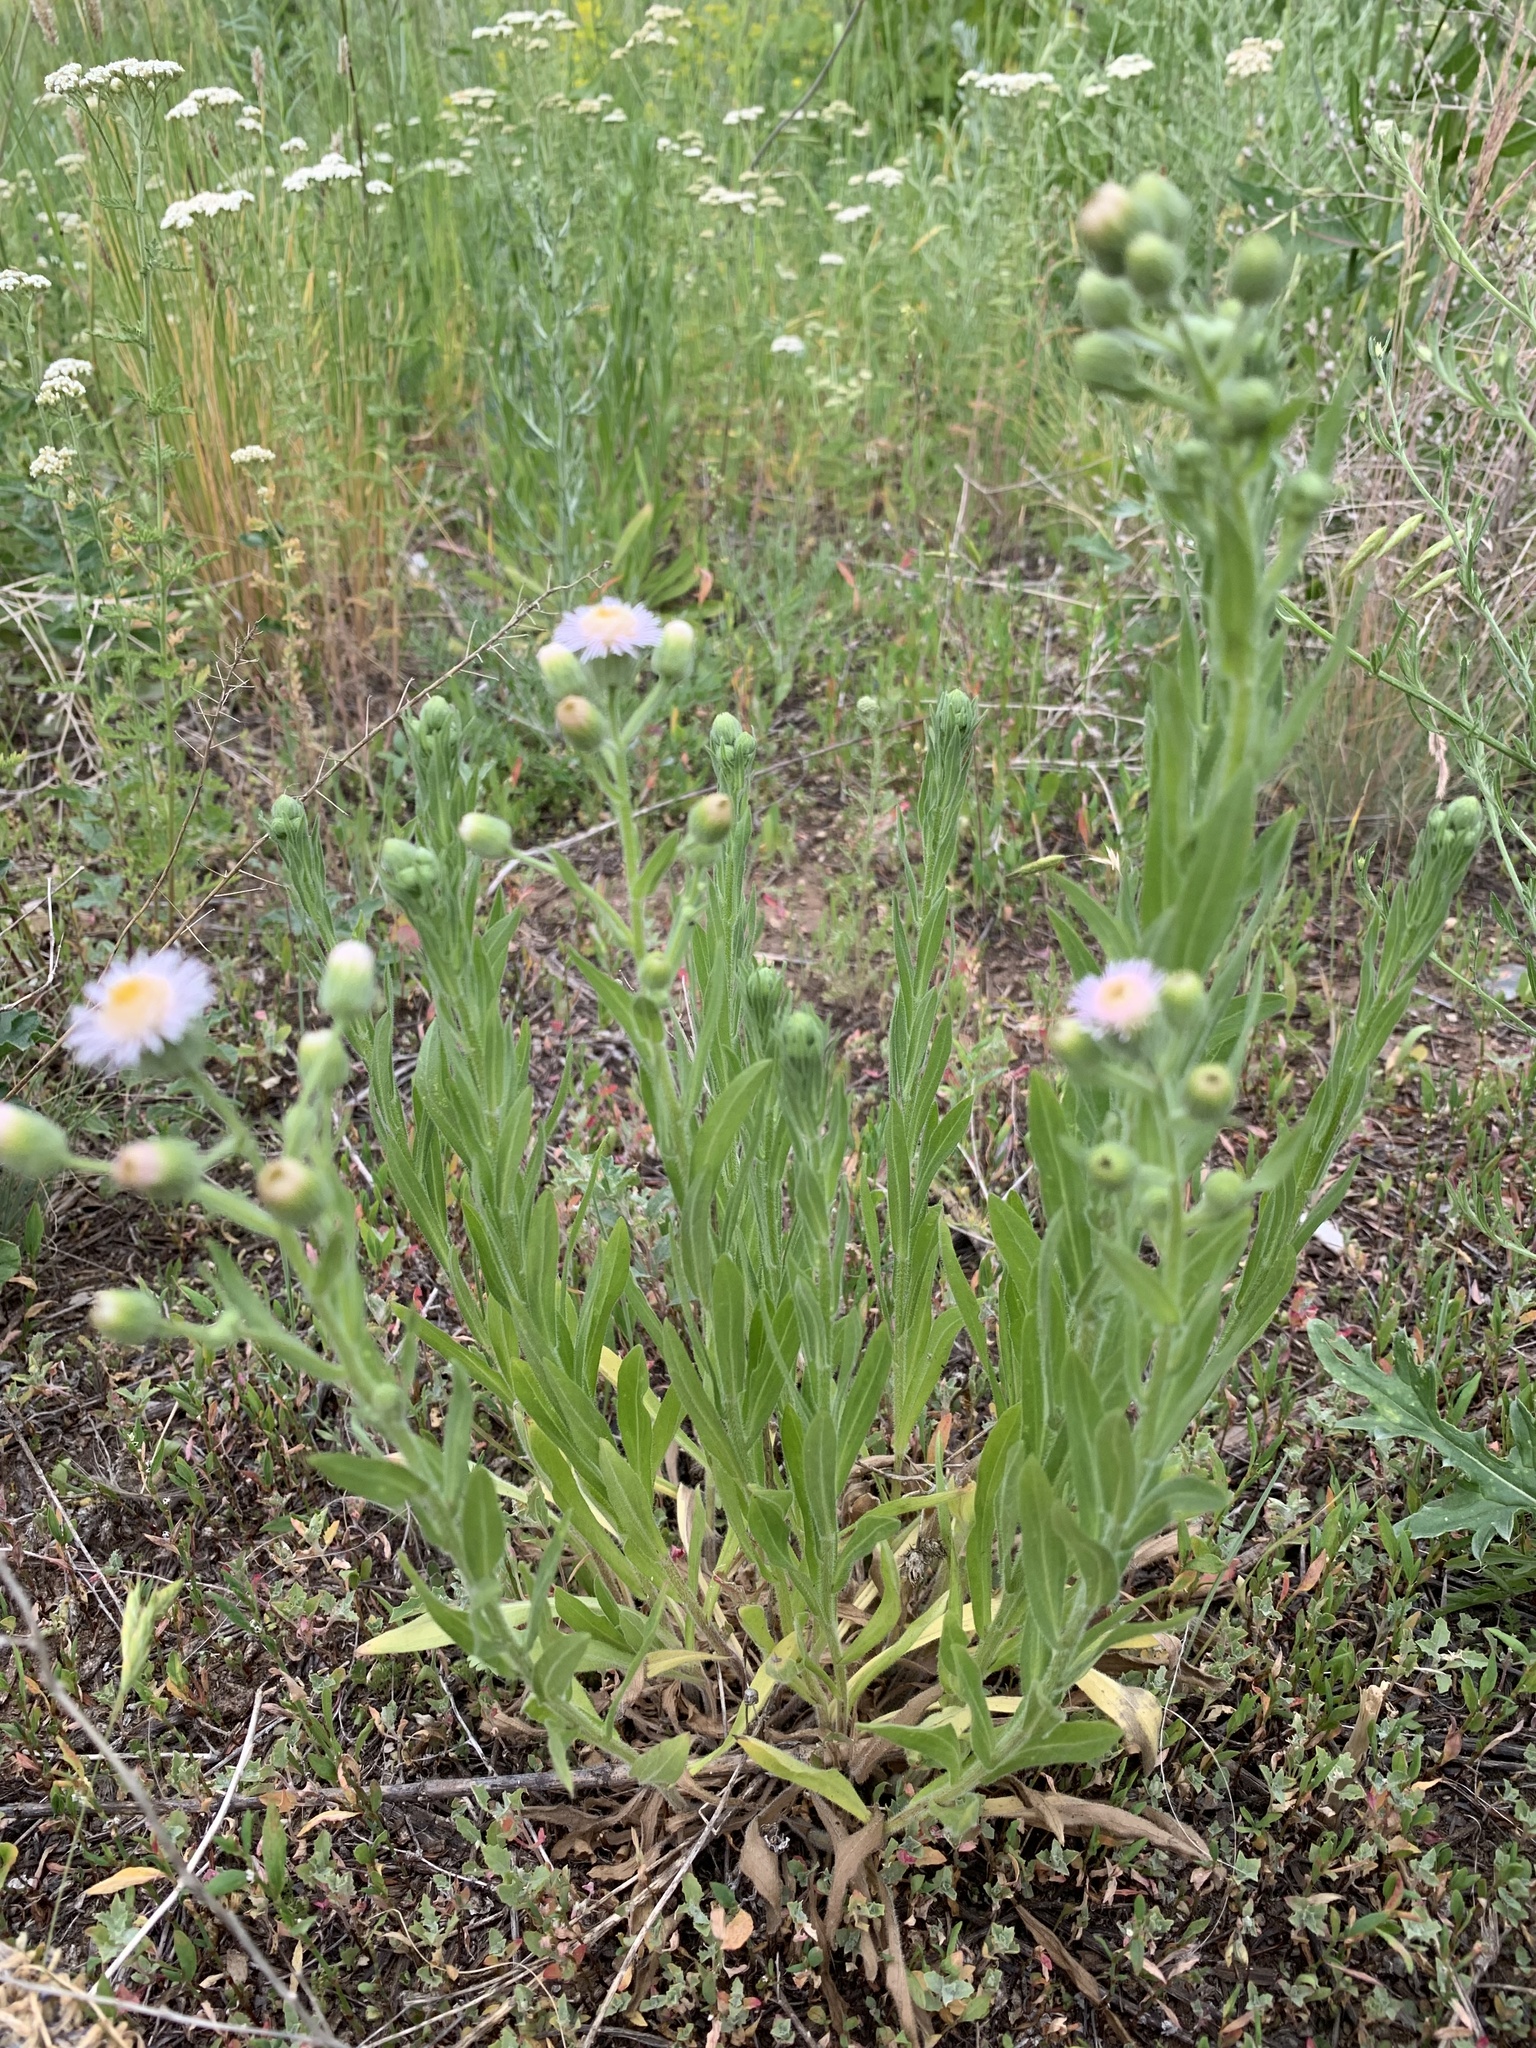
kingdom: Plantae
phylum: Tracheophyta
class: Magnoliopsida
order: Asterales
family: Asteraceae
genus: Erigeron
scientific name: Erigeron acris
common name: Blue fleabane
